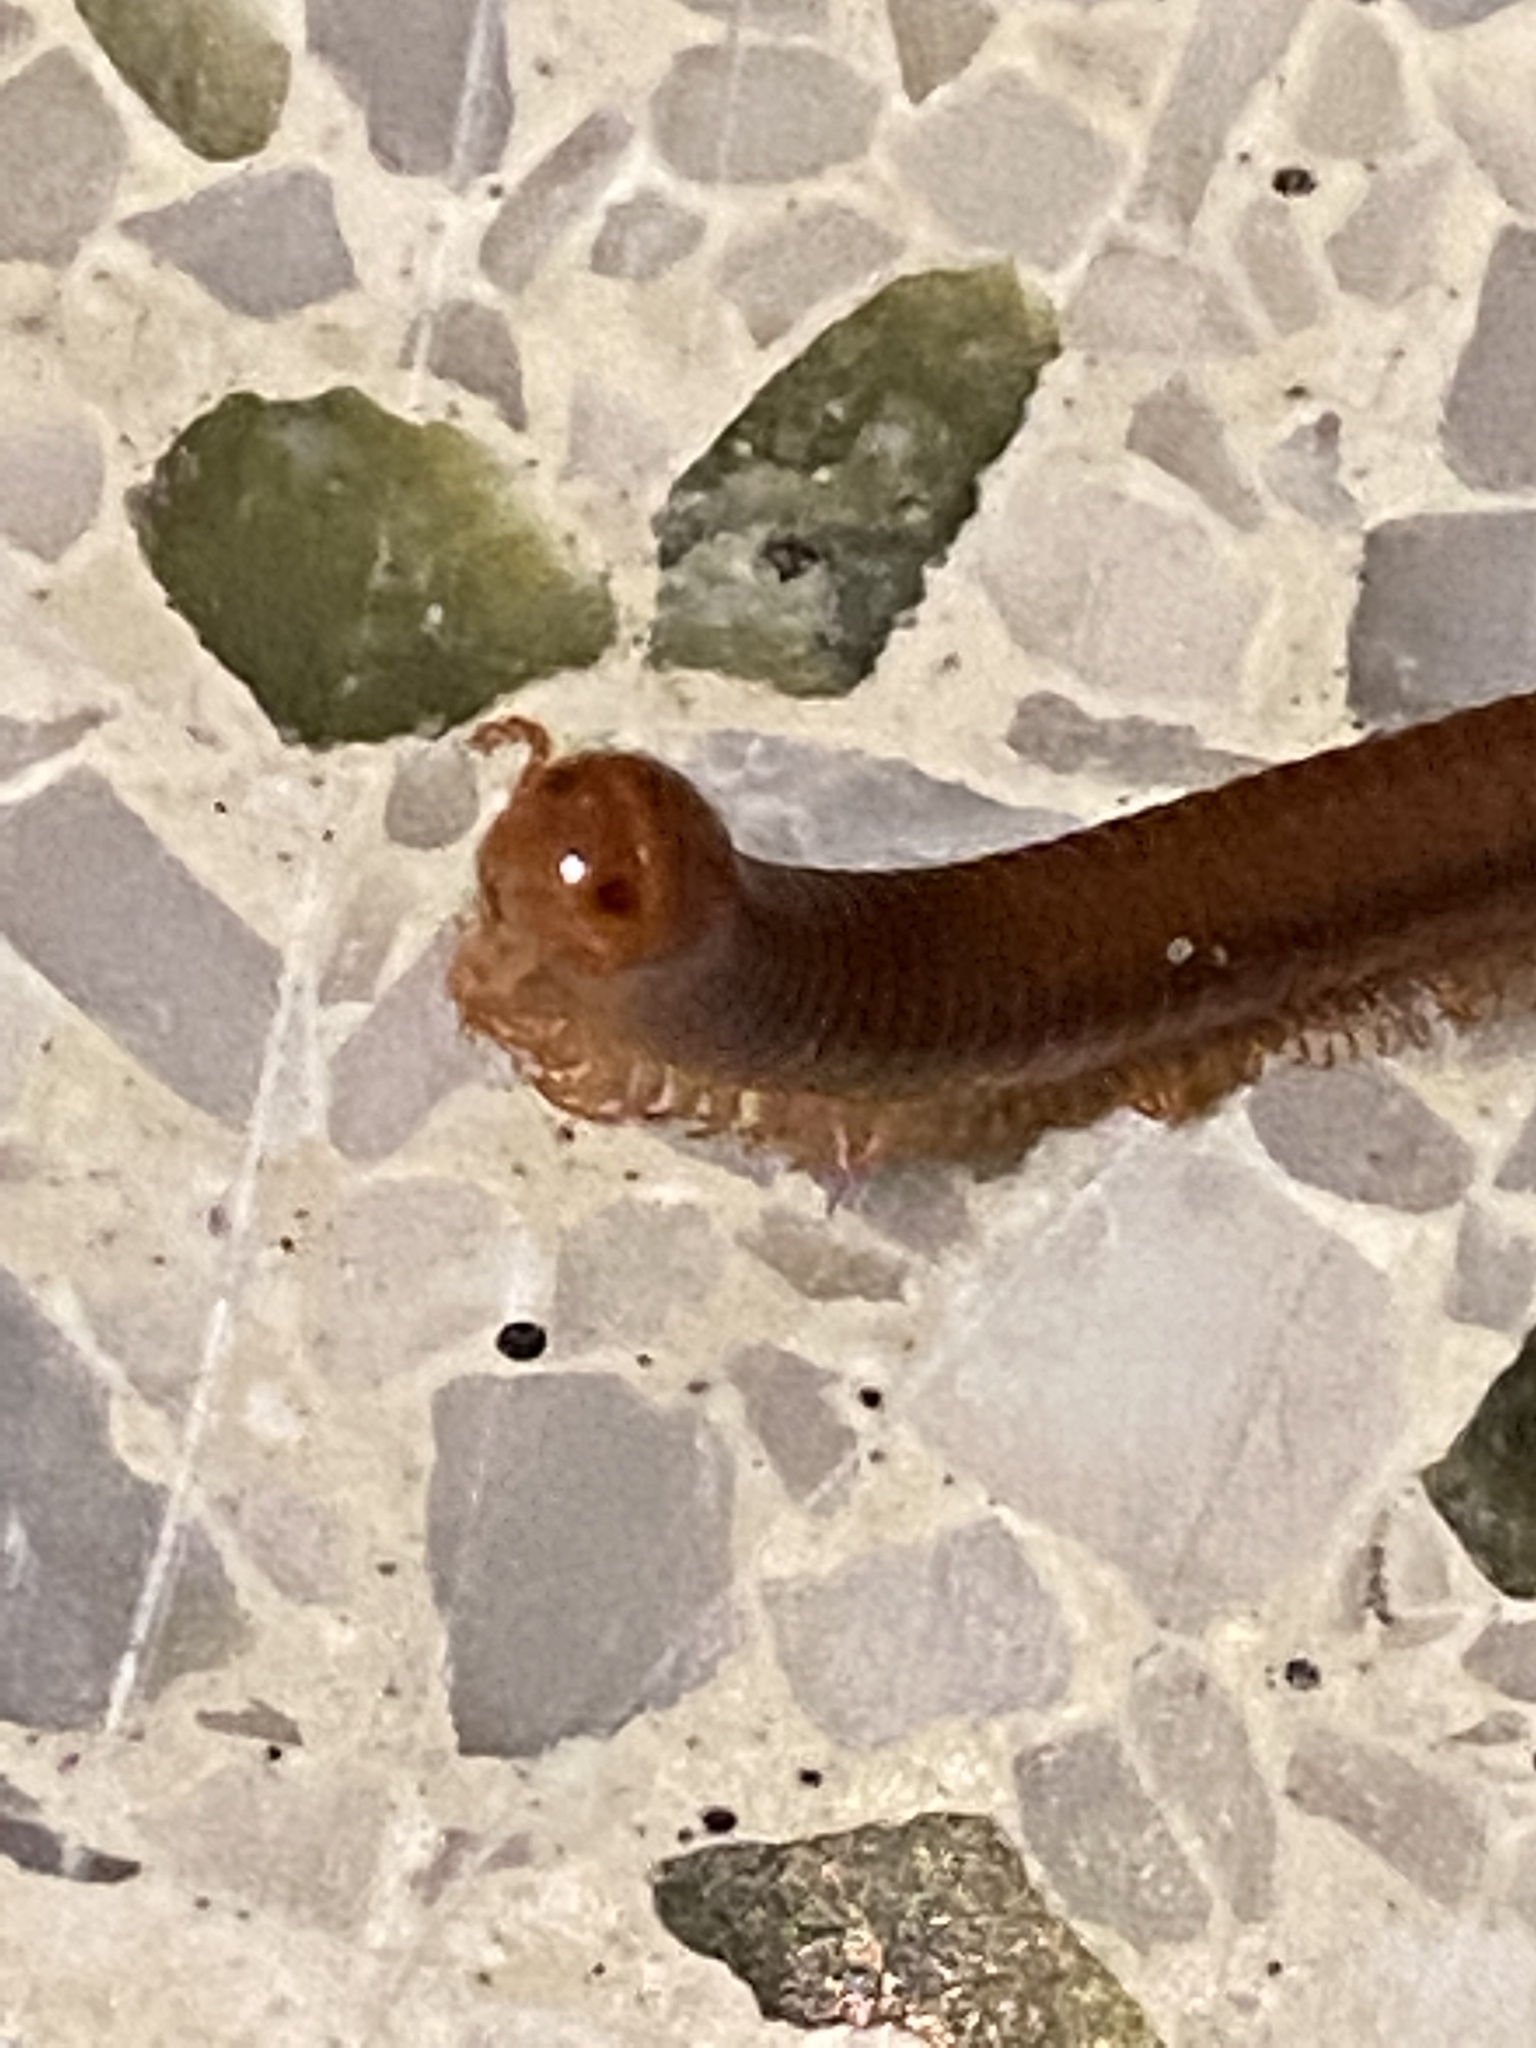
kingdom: Animalia
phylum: Arthropoda
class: Diplopoda
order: Spirobolida
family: Pachybolidae
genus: Trigoniulus
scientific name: Trigoniulus corallinus
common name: Millipede
